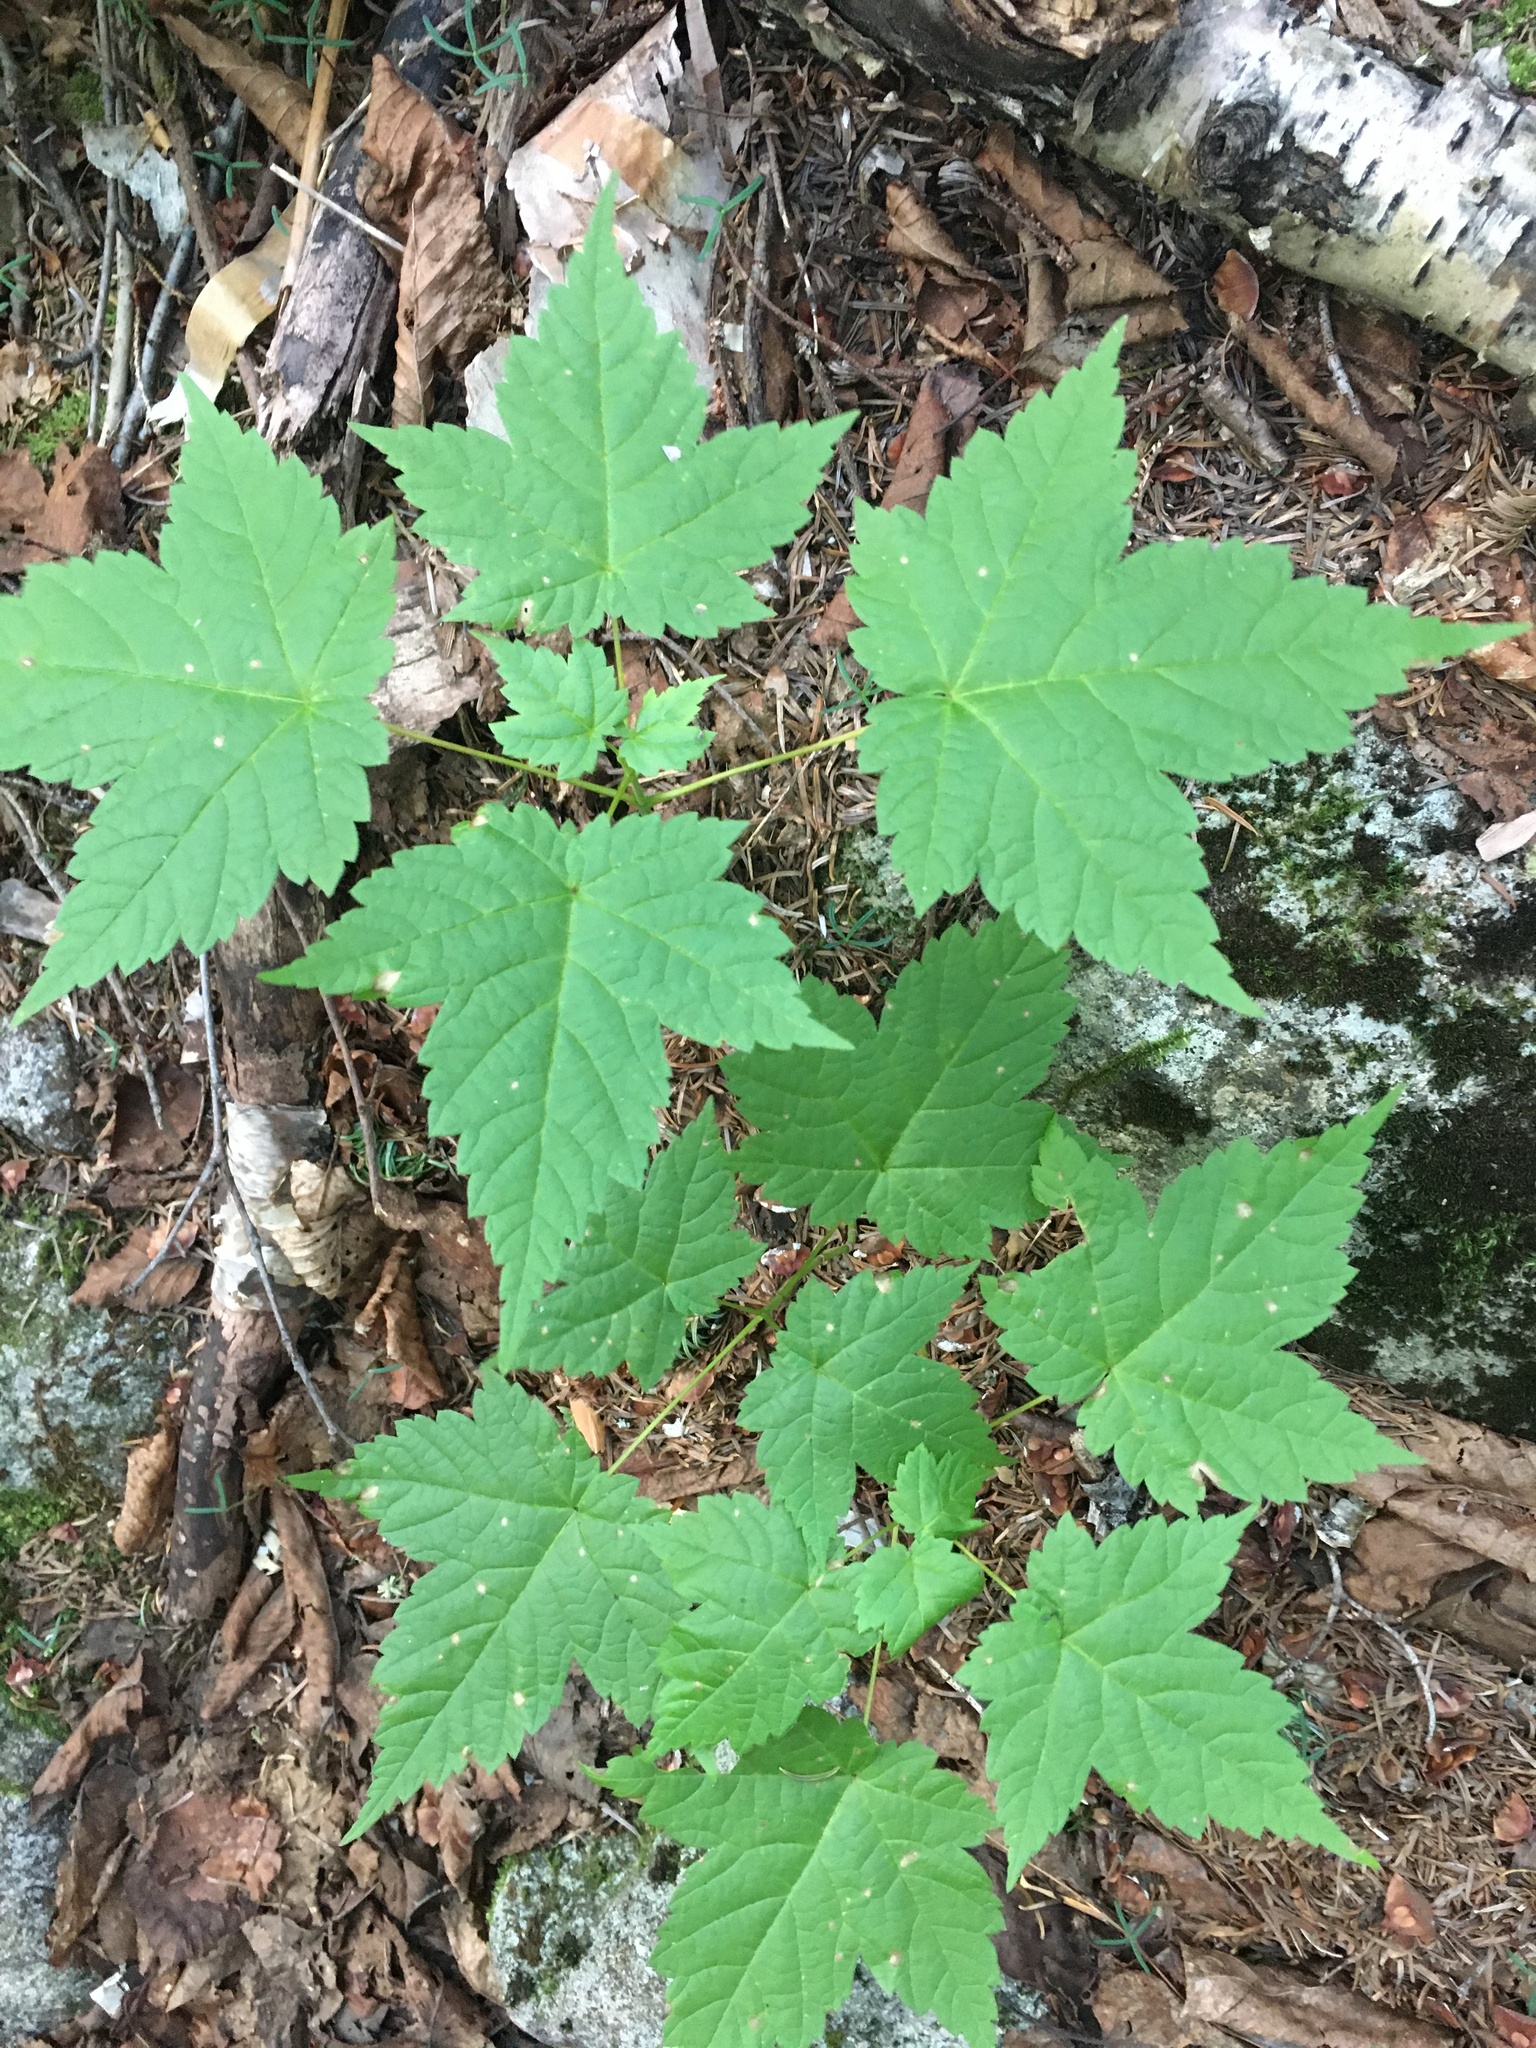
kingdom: Plantae
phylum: Tracheophyta
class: Magnoliopsida
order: Sapindales
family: Sapindaceae
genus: Acer
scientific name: Acer spicatum
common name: Mountain maple
